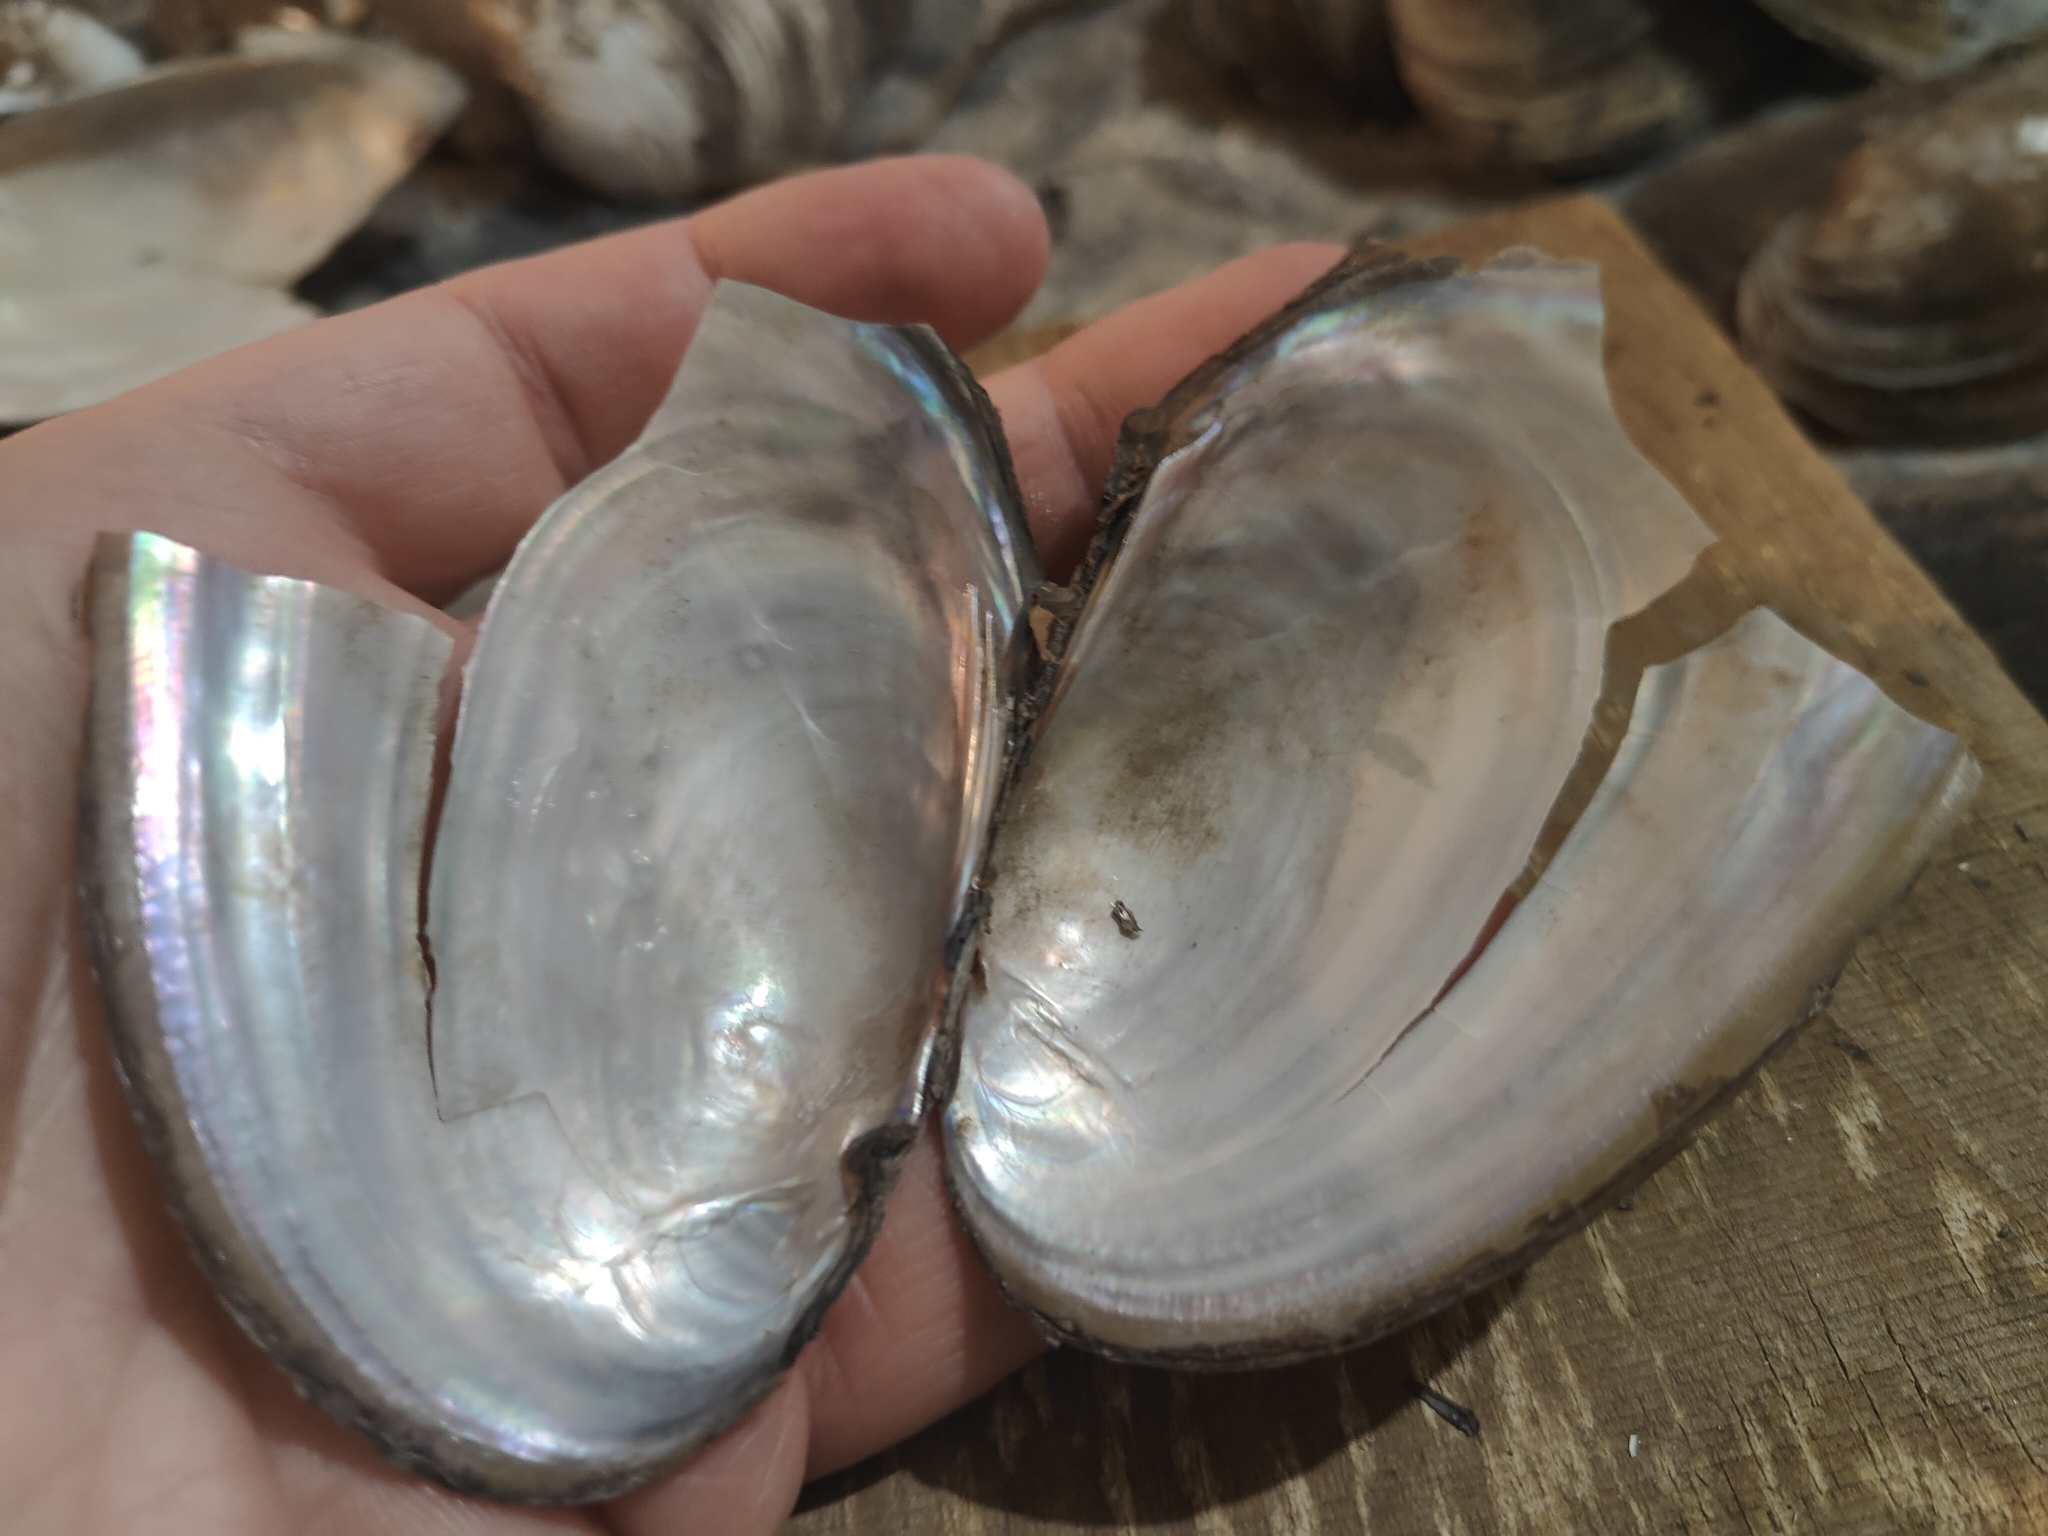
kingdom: Animalia
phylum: Mollusca
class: Bivalvia
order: Unionida
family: Unionidae
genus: Potamilus
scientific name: Potamilus fragilis
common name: Fragile papershell
